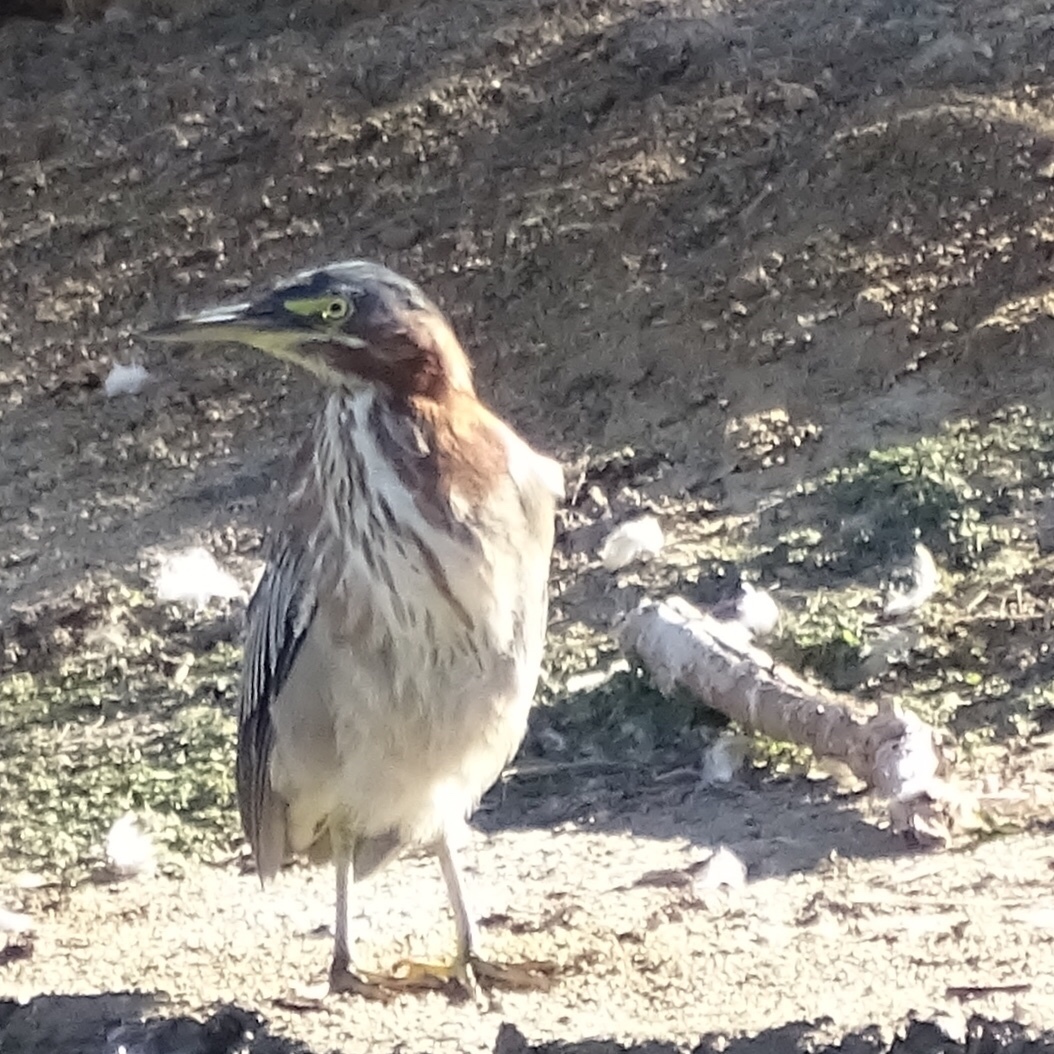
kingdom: Animalia
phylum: Chordata
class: Aves
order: Pelecaniformes
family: Ardeidae
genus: Butorides
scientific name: Butorides virescens
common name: Green heron
